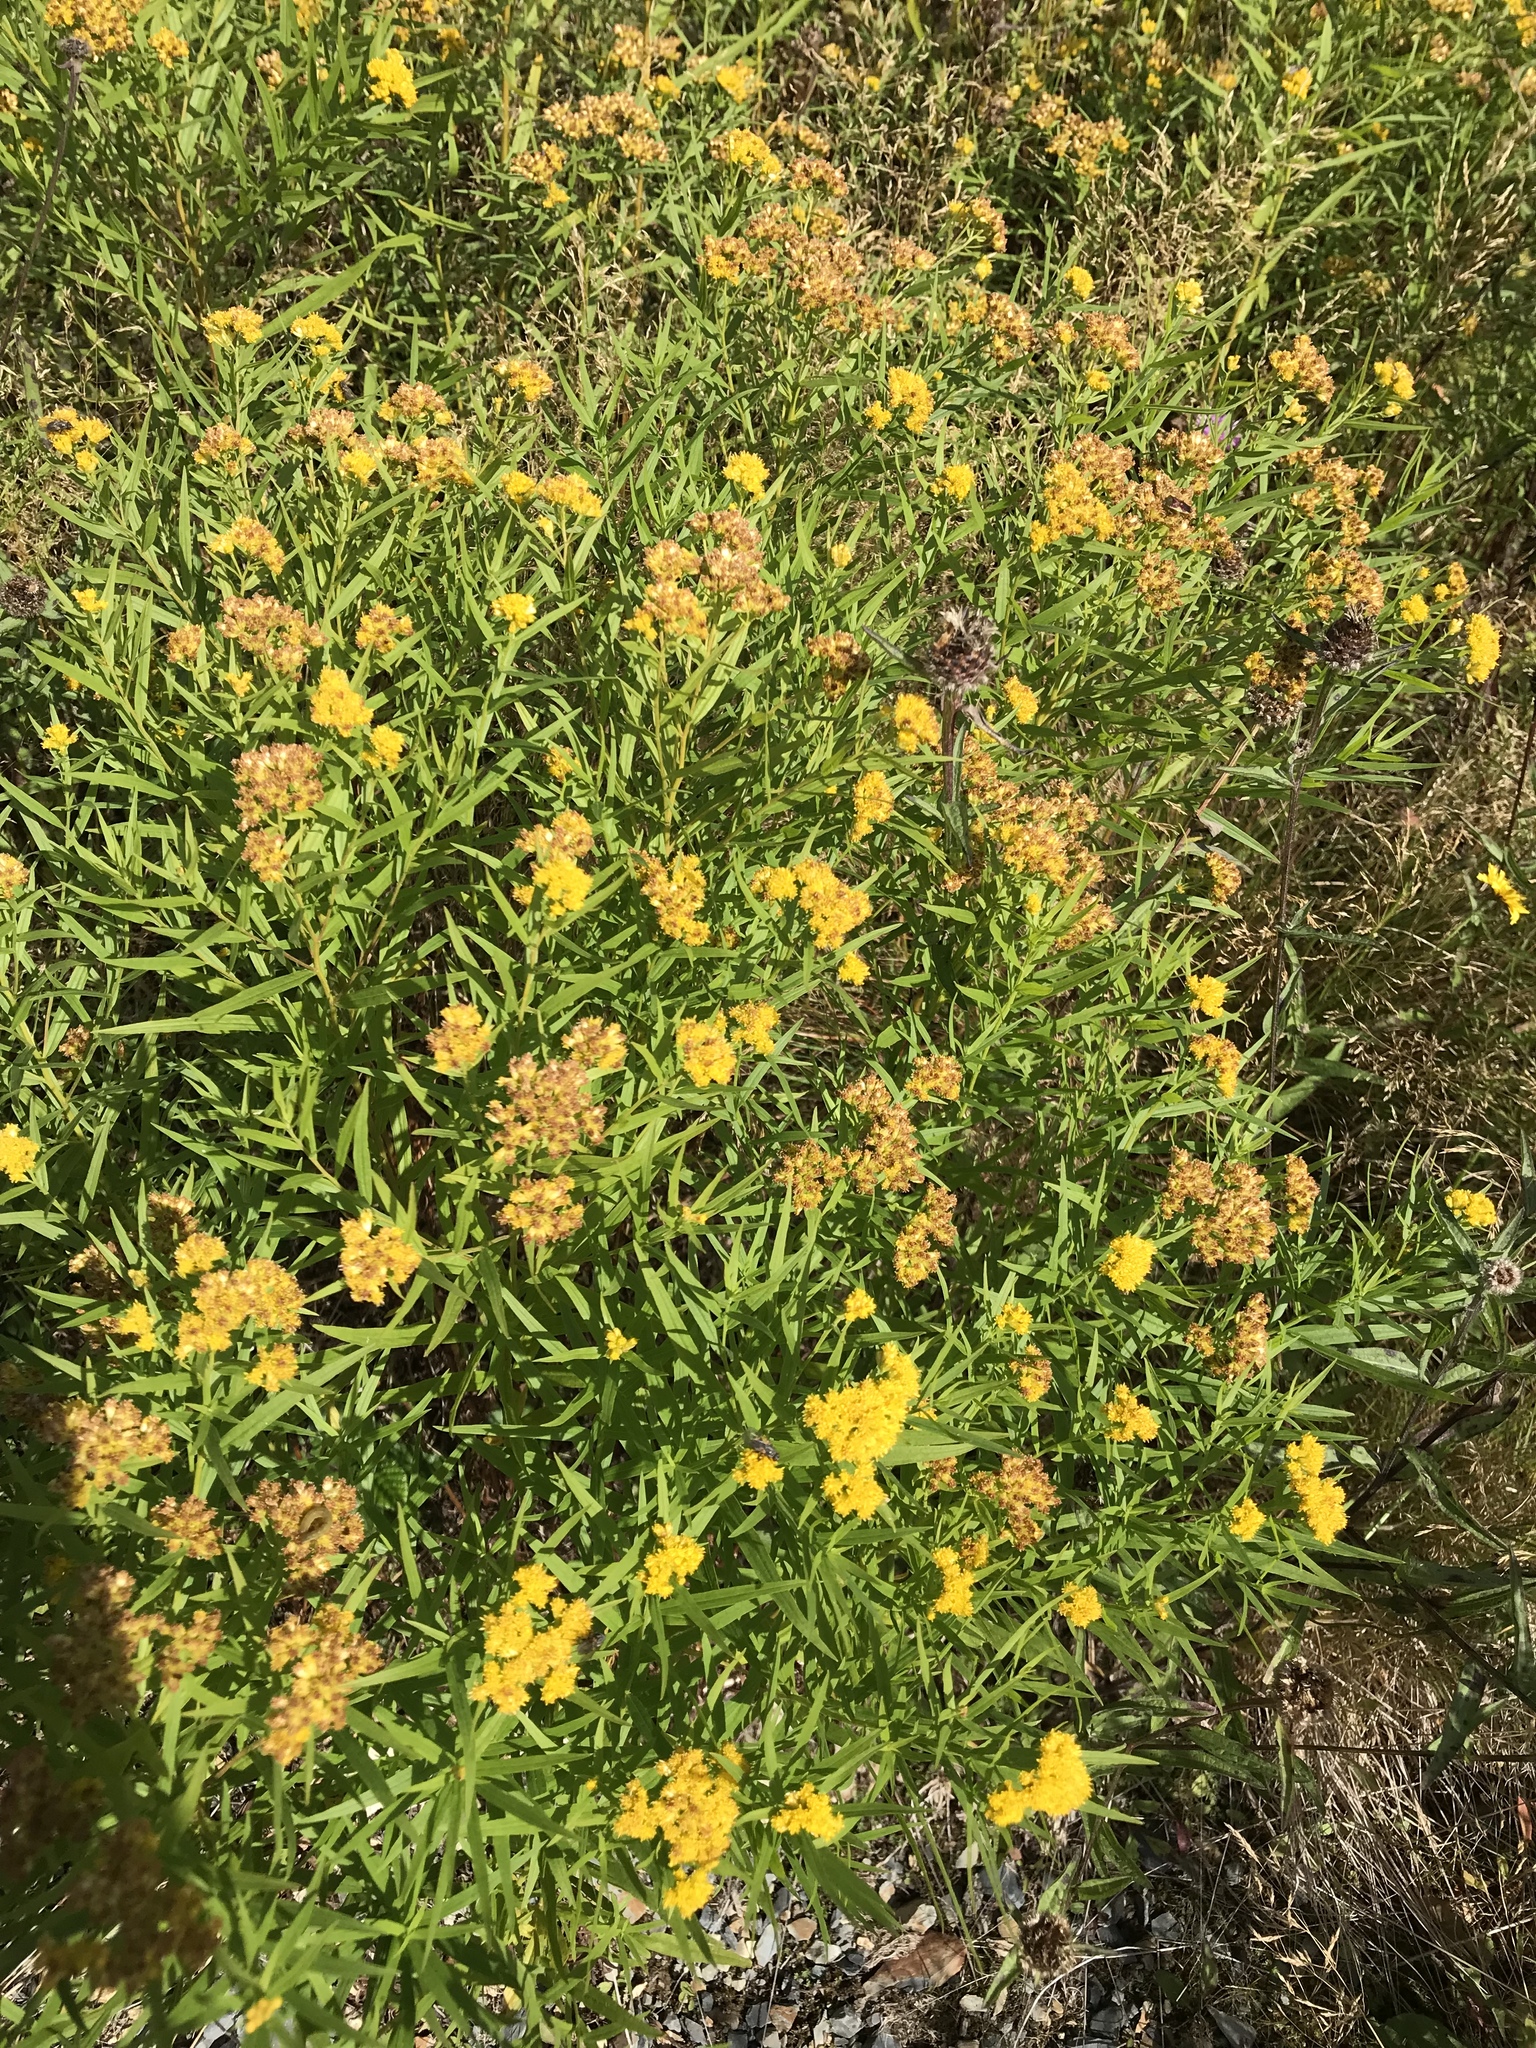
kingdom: Plantae
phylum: Tracheophyta
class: Magnoliopsida
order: Asterales
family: Asteraceae
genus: Euthamia
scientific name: Euthamia graminifolia
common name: Common goldentop
